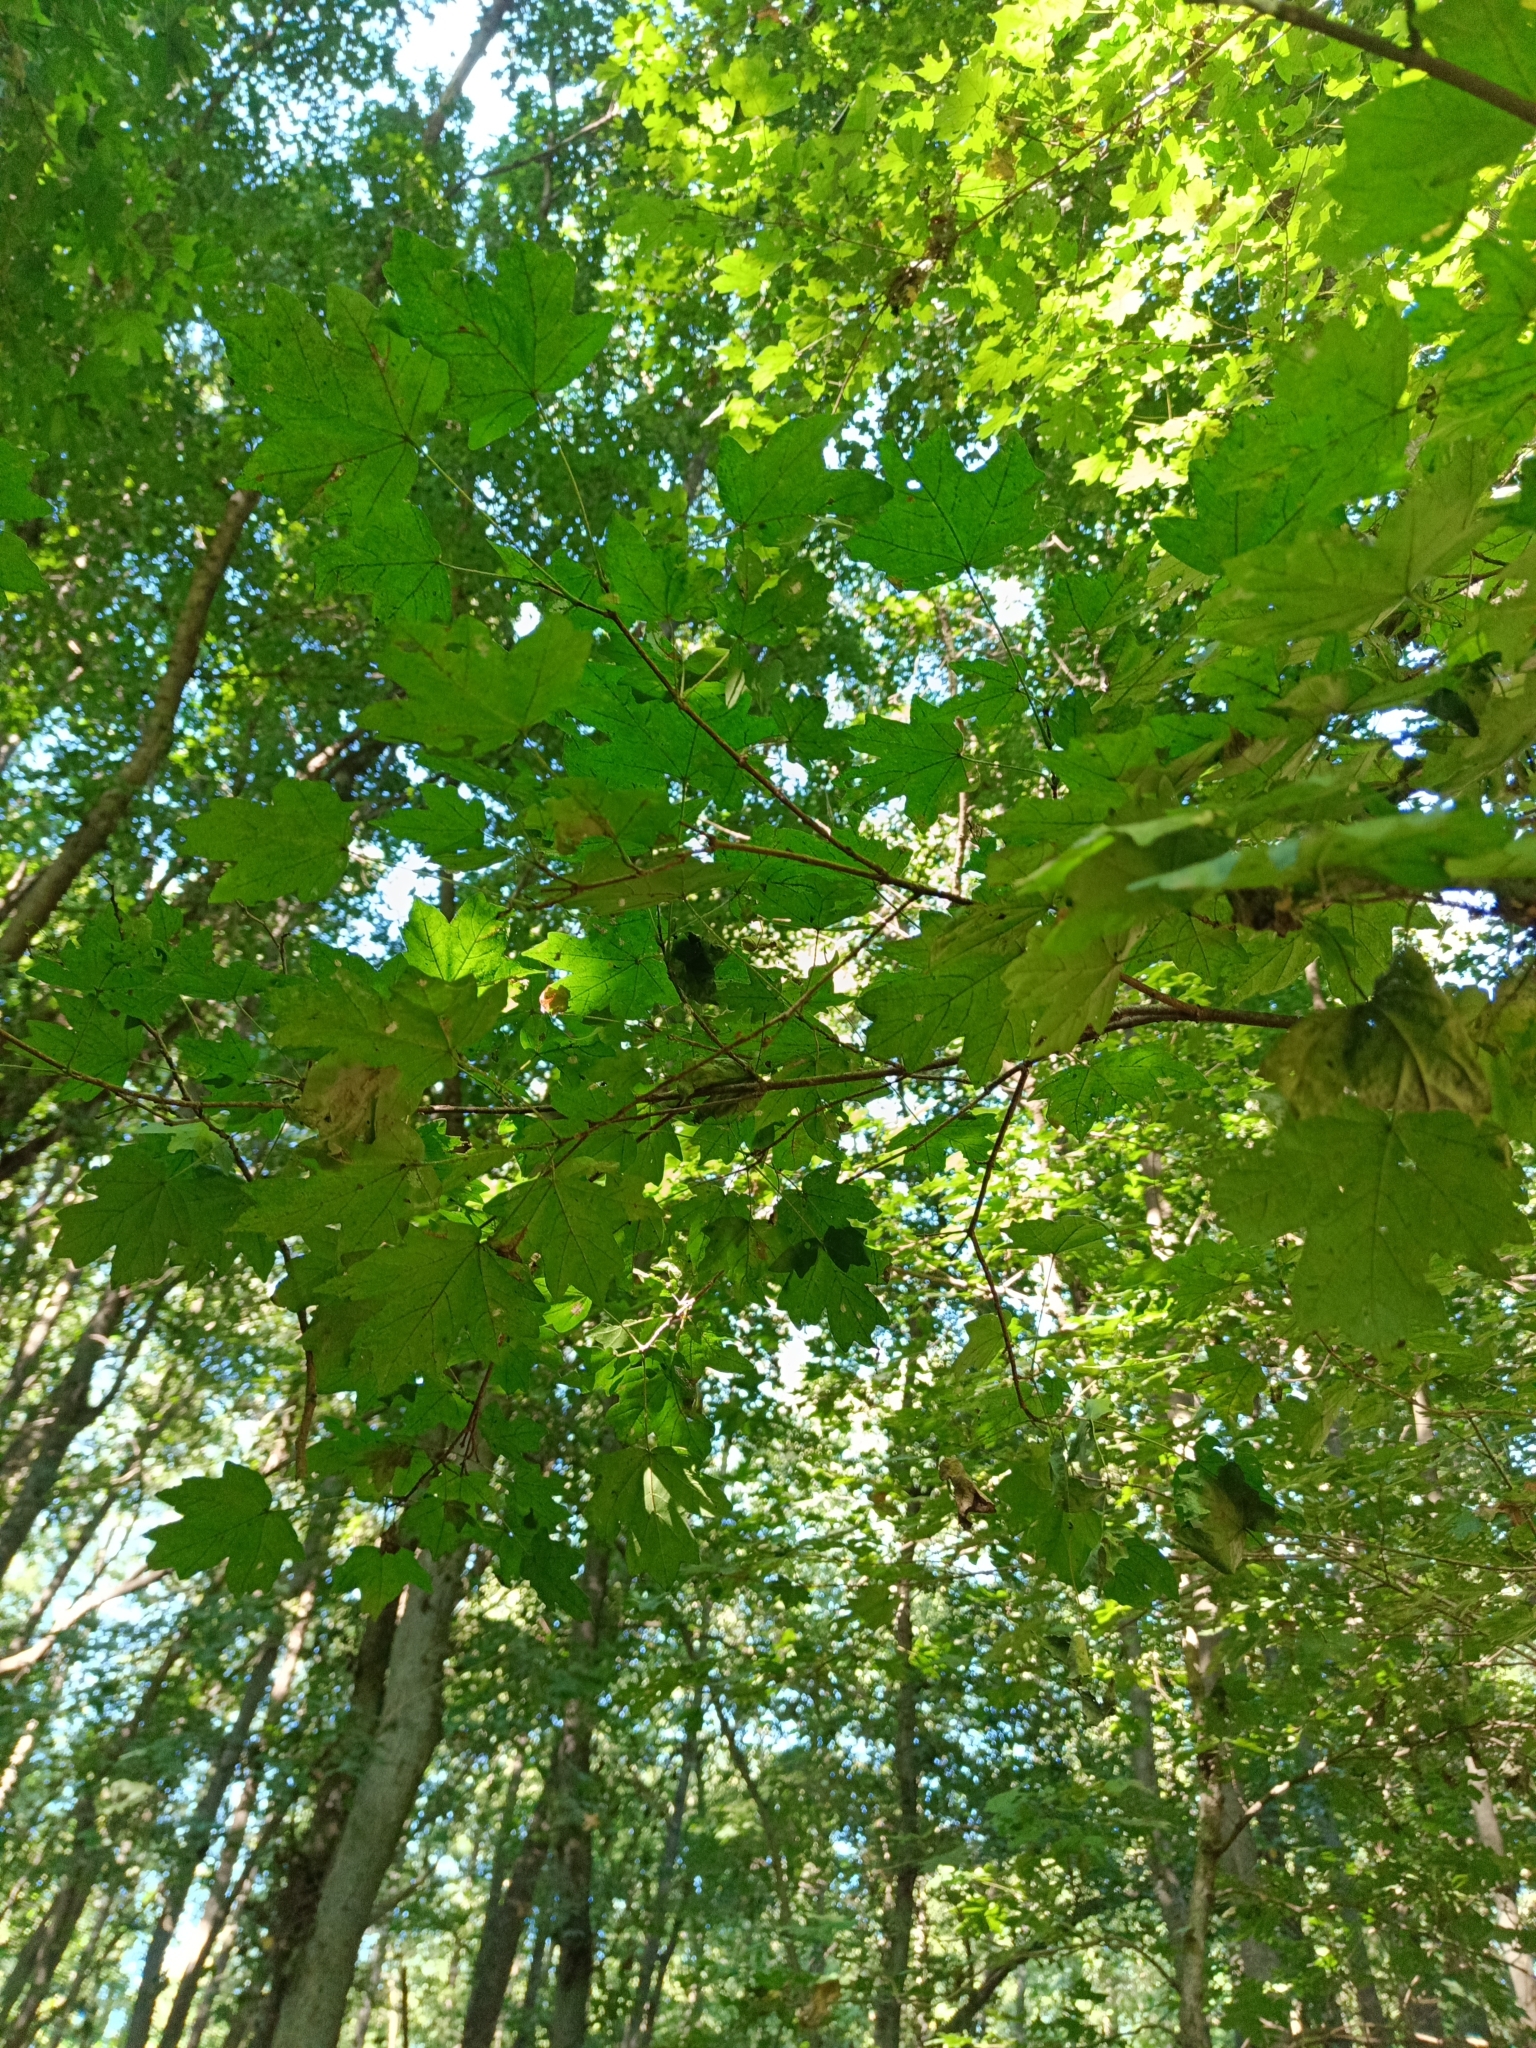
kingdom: Plantae
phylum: Tracheophyta
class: Magnoliopsida
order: Sapindales
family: Sapindaceae
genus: Acer
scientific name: Acer campestre
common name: Field maple
